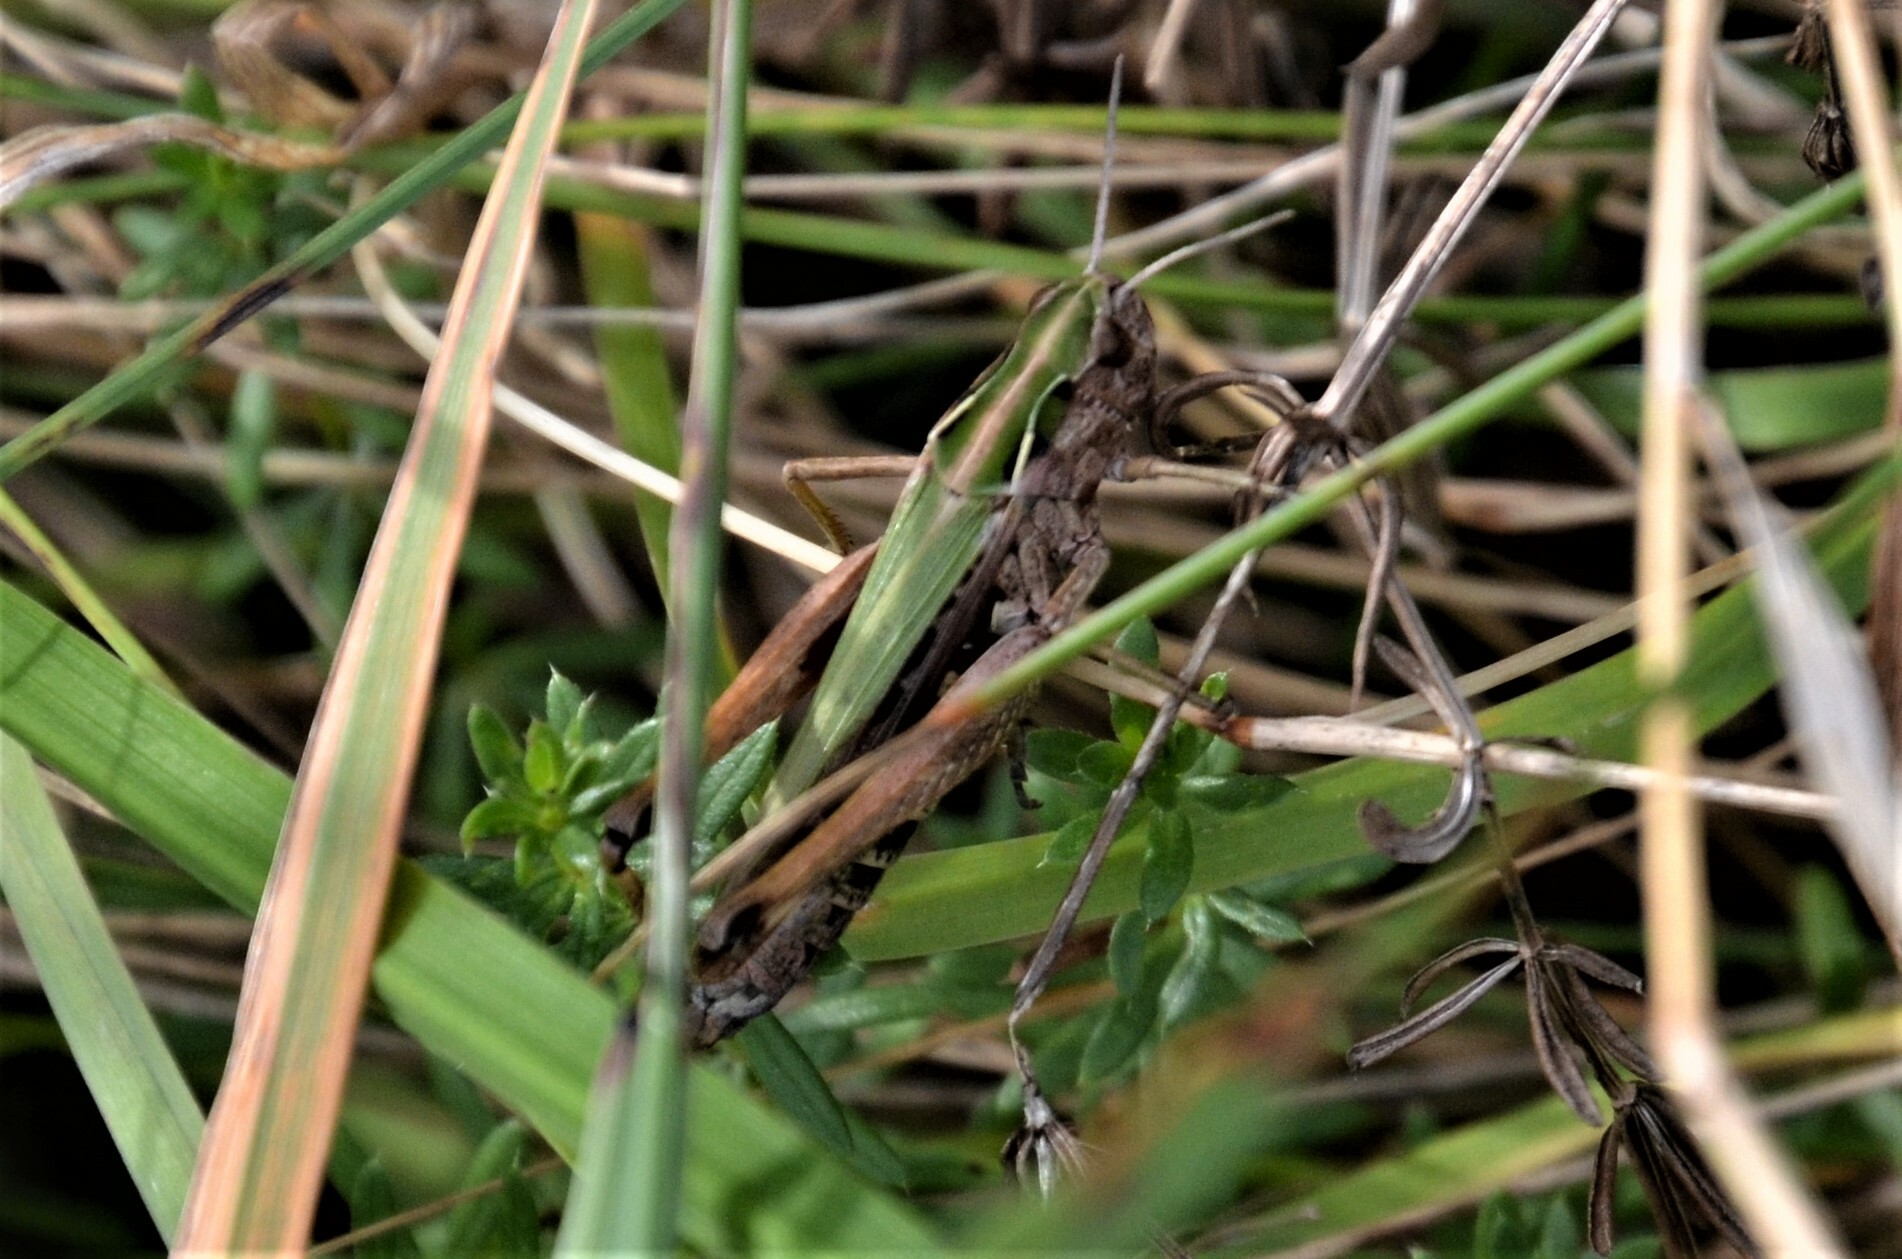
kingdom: Animalia
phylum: Arthropoda
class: Insecta
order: Orthoptera
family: Acrididae
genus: Omocestus
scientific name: Omocestus viridulus
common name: Common green grasshopper
